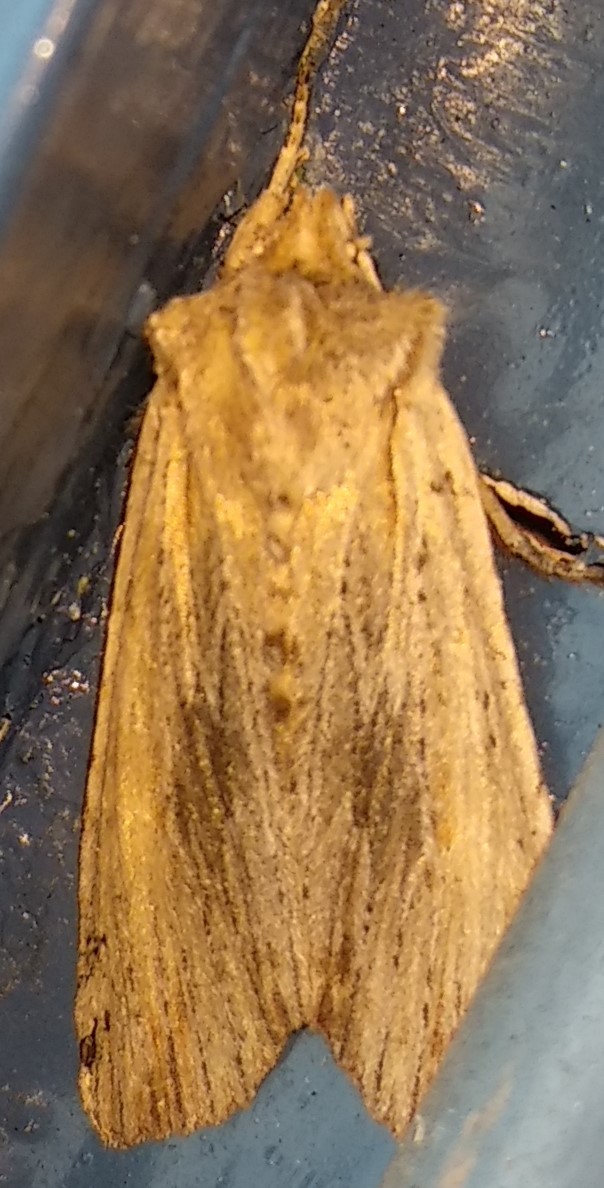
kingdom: Animalia
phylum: Arthropoda
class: Insecta
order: Lepidoptera
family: Noctuidae
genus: Lithophane
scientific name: Lithophane amanda
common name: Amanda's pinion moth
